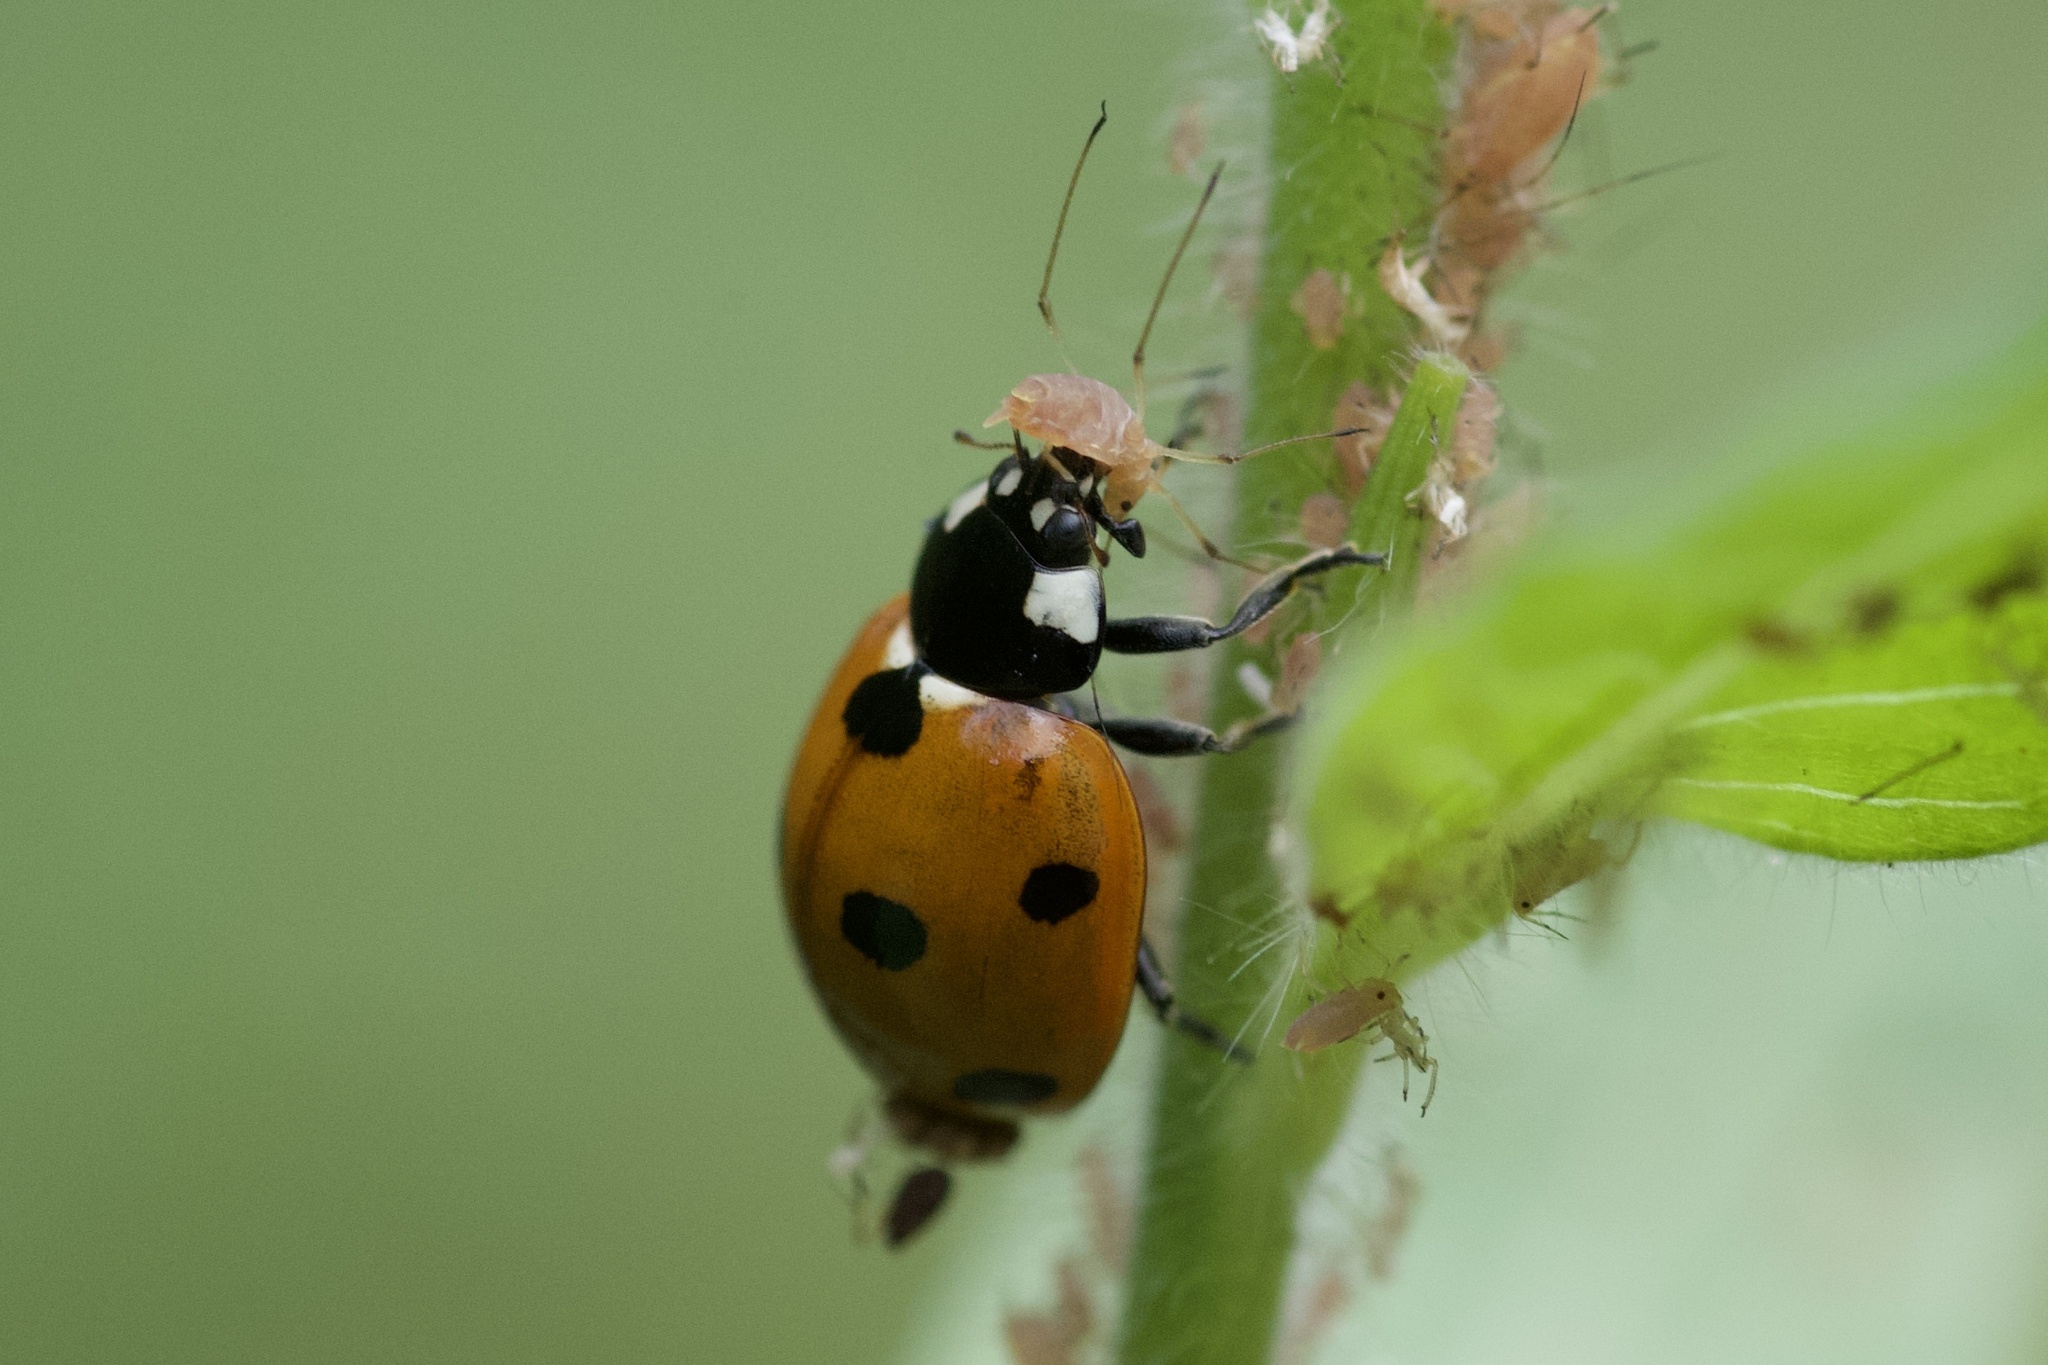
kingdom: Animalia
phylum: Arthropoda
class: Insecta
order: Coleoptera
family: Coccinellidae
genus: Coccinella
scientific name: Coccinella septempunctata
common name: Sevenspotted lady beetle
